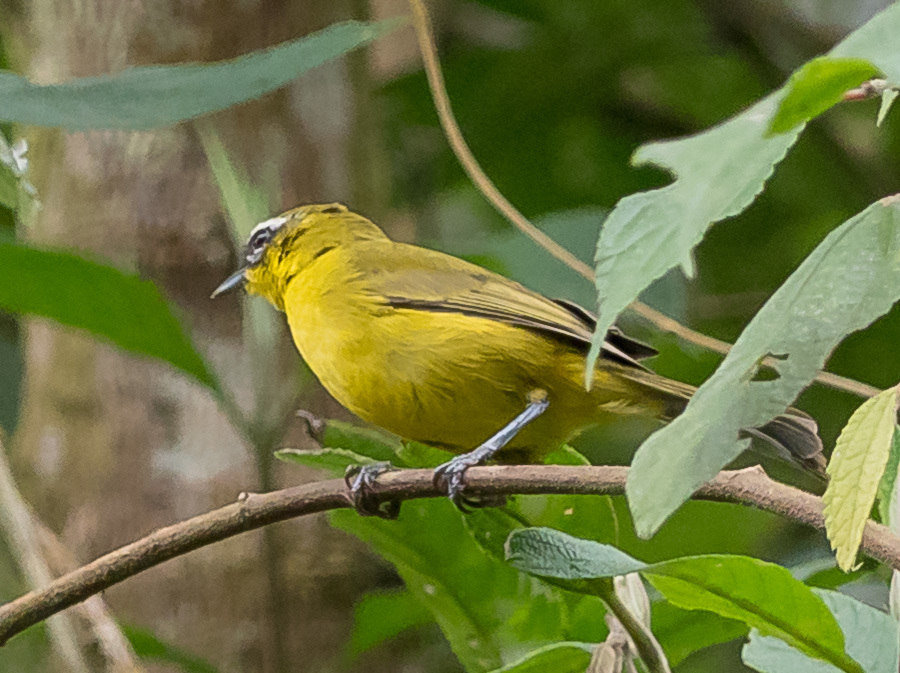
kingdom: Animalia
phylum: Chordata
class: Aves
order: Passeriformes
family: Thraupidae
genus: Thlypopsis
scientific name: Thlypopsis superciliaris
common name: Superciliaried hemispingus
